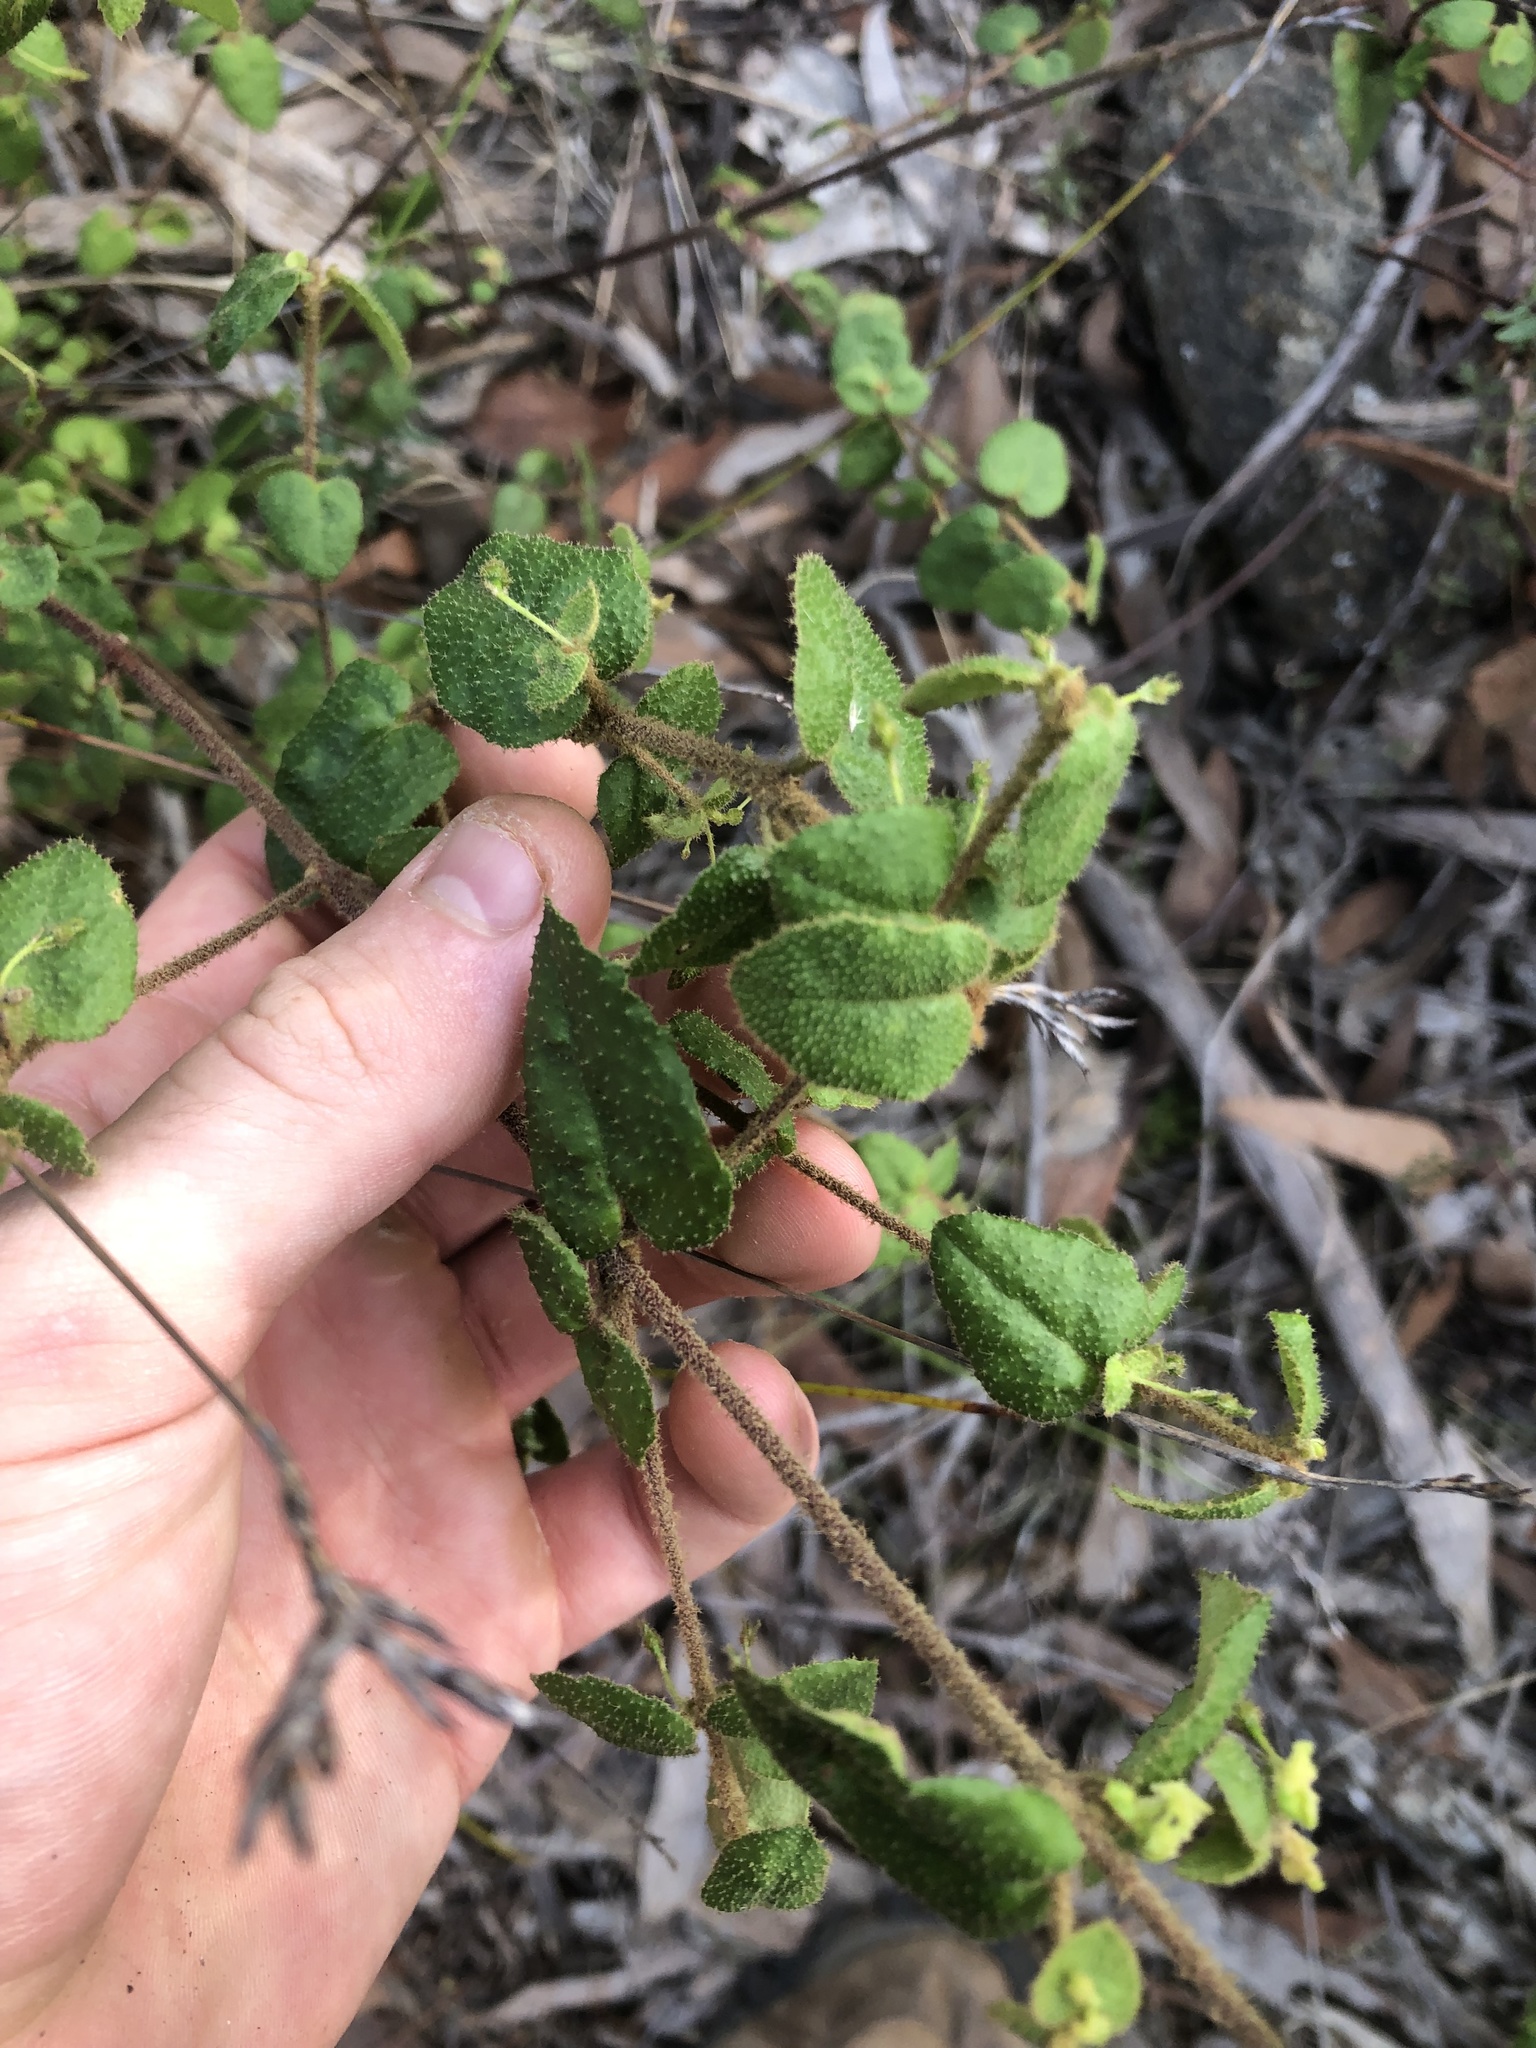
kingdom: Plantae
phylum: Tracheophyta
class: Magnoliopsida
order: Sapindales
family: Rutaceae
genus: Correa
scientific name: Correa aemula
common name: Hairy correa
